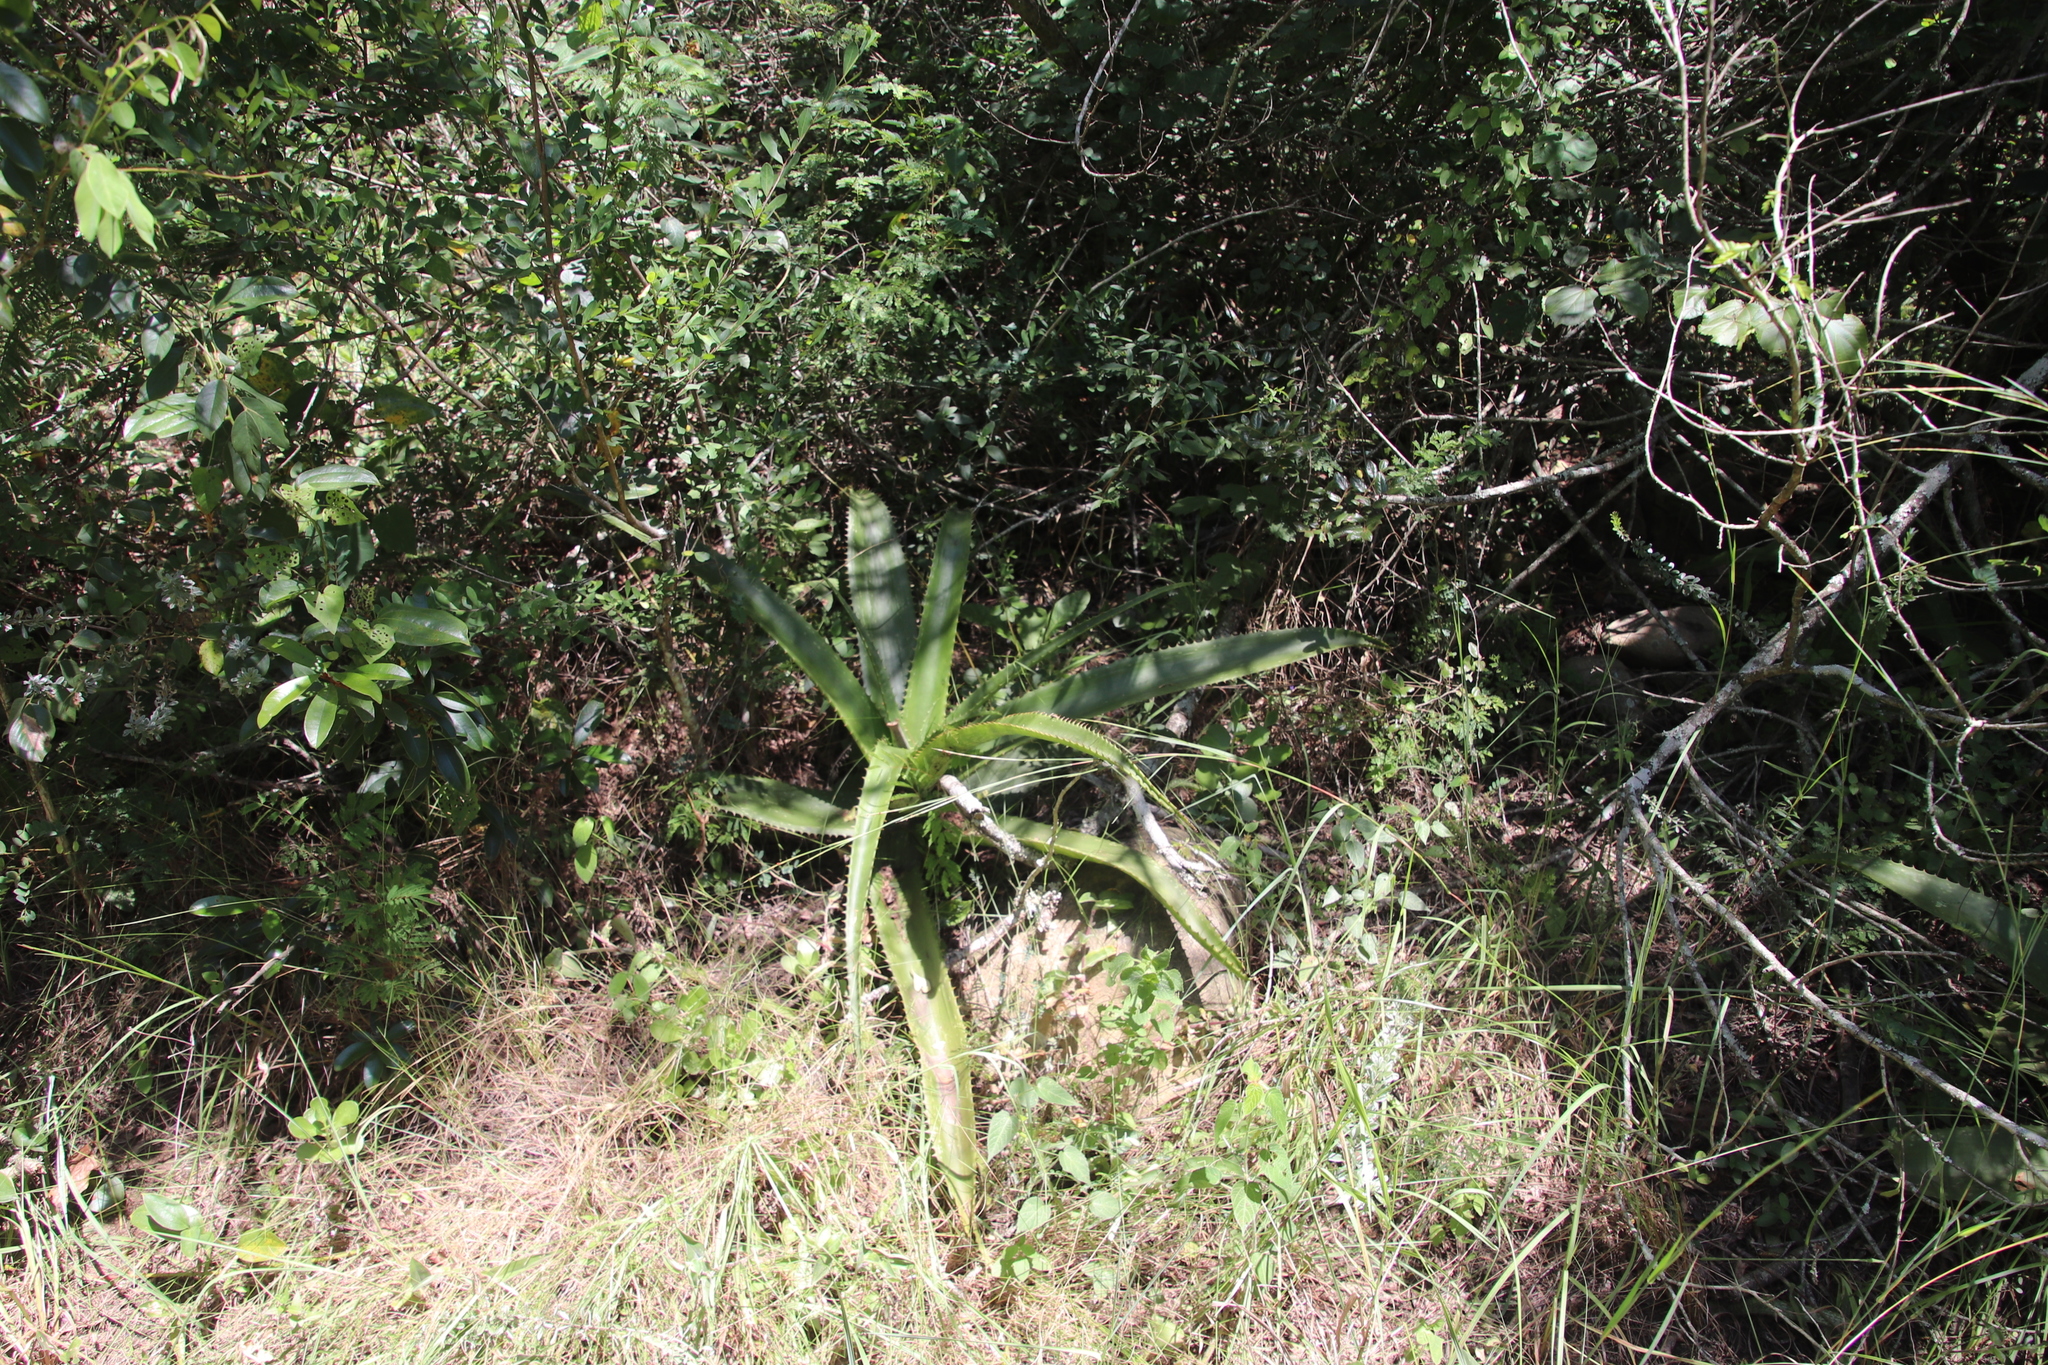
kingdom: Plantae
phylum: Tracheophyta
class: Liliopsida
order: Asparagales
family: Asphodelaceae
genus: Aloe
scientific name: Aloe dyeri
